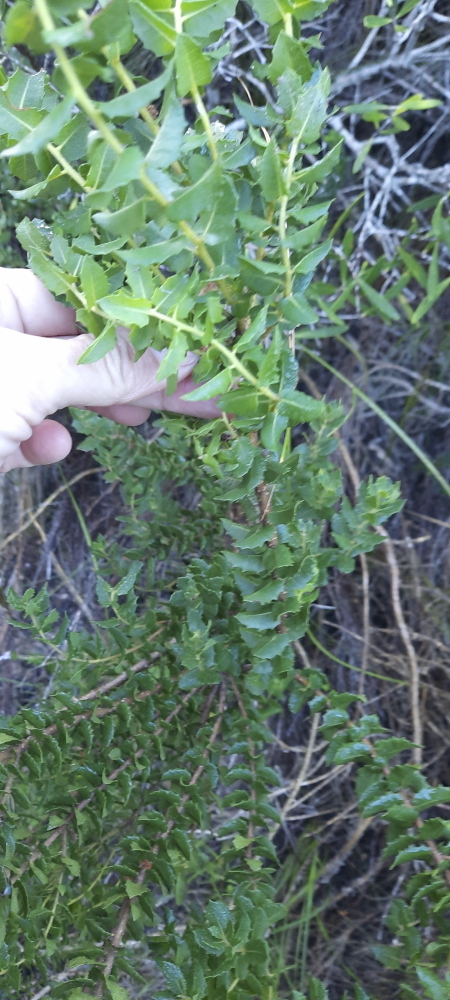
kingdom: Plantae
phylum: Tracheophyta
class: Magnoliopsida
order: Fagales
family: Myricaceae
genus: Morella
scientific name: Morella cordifolia
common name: Waxberry
